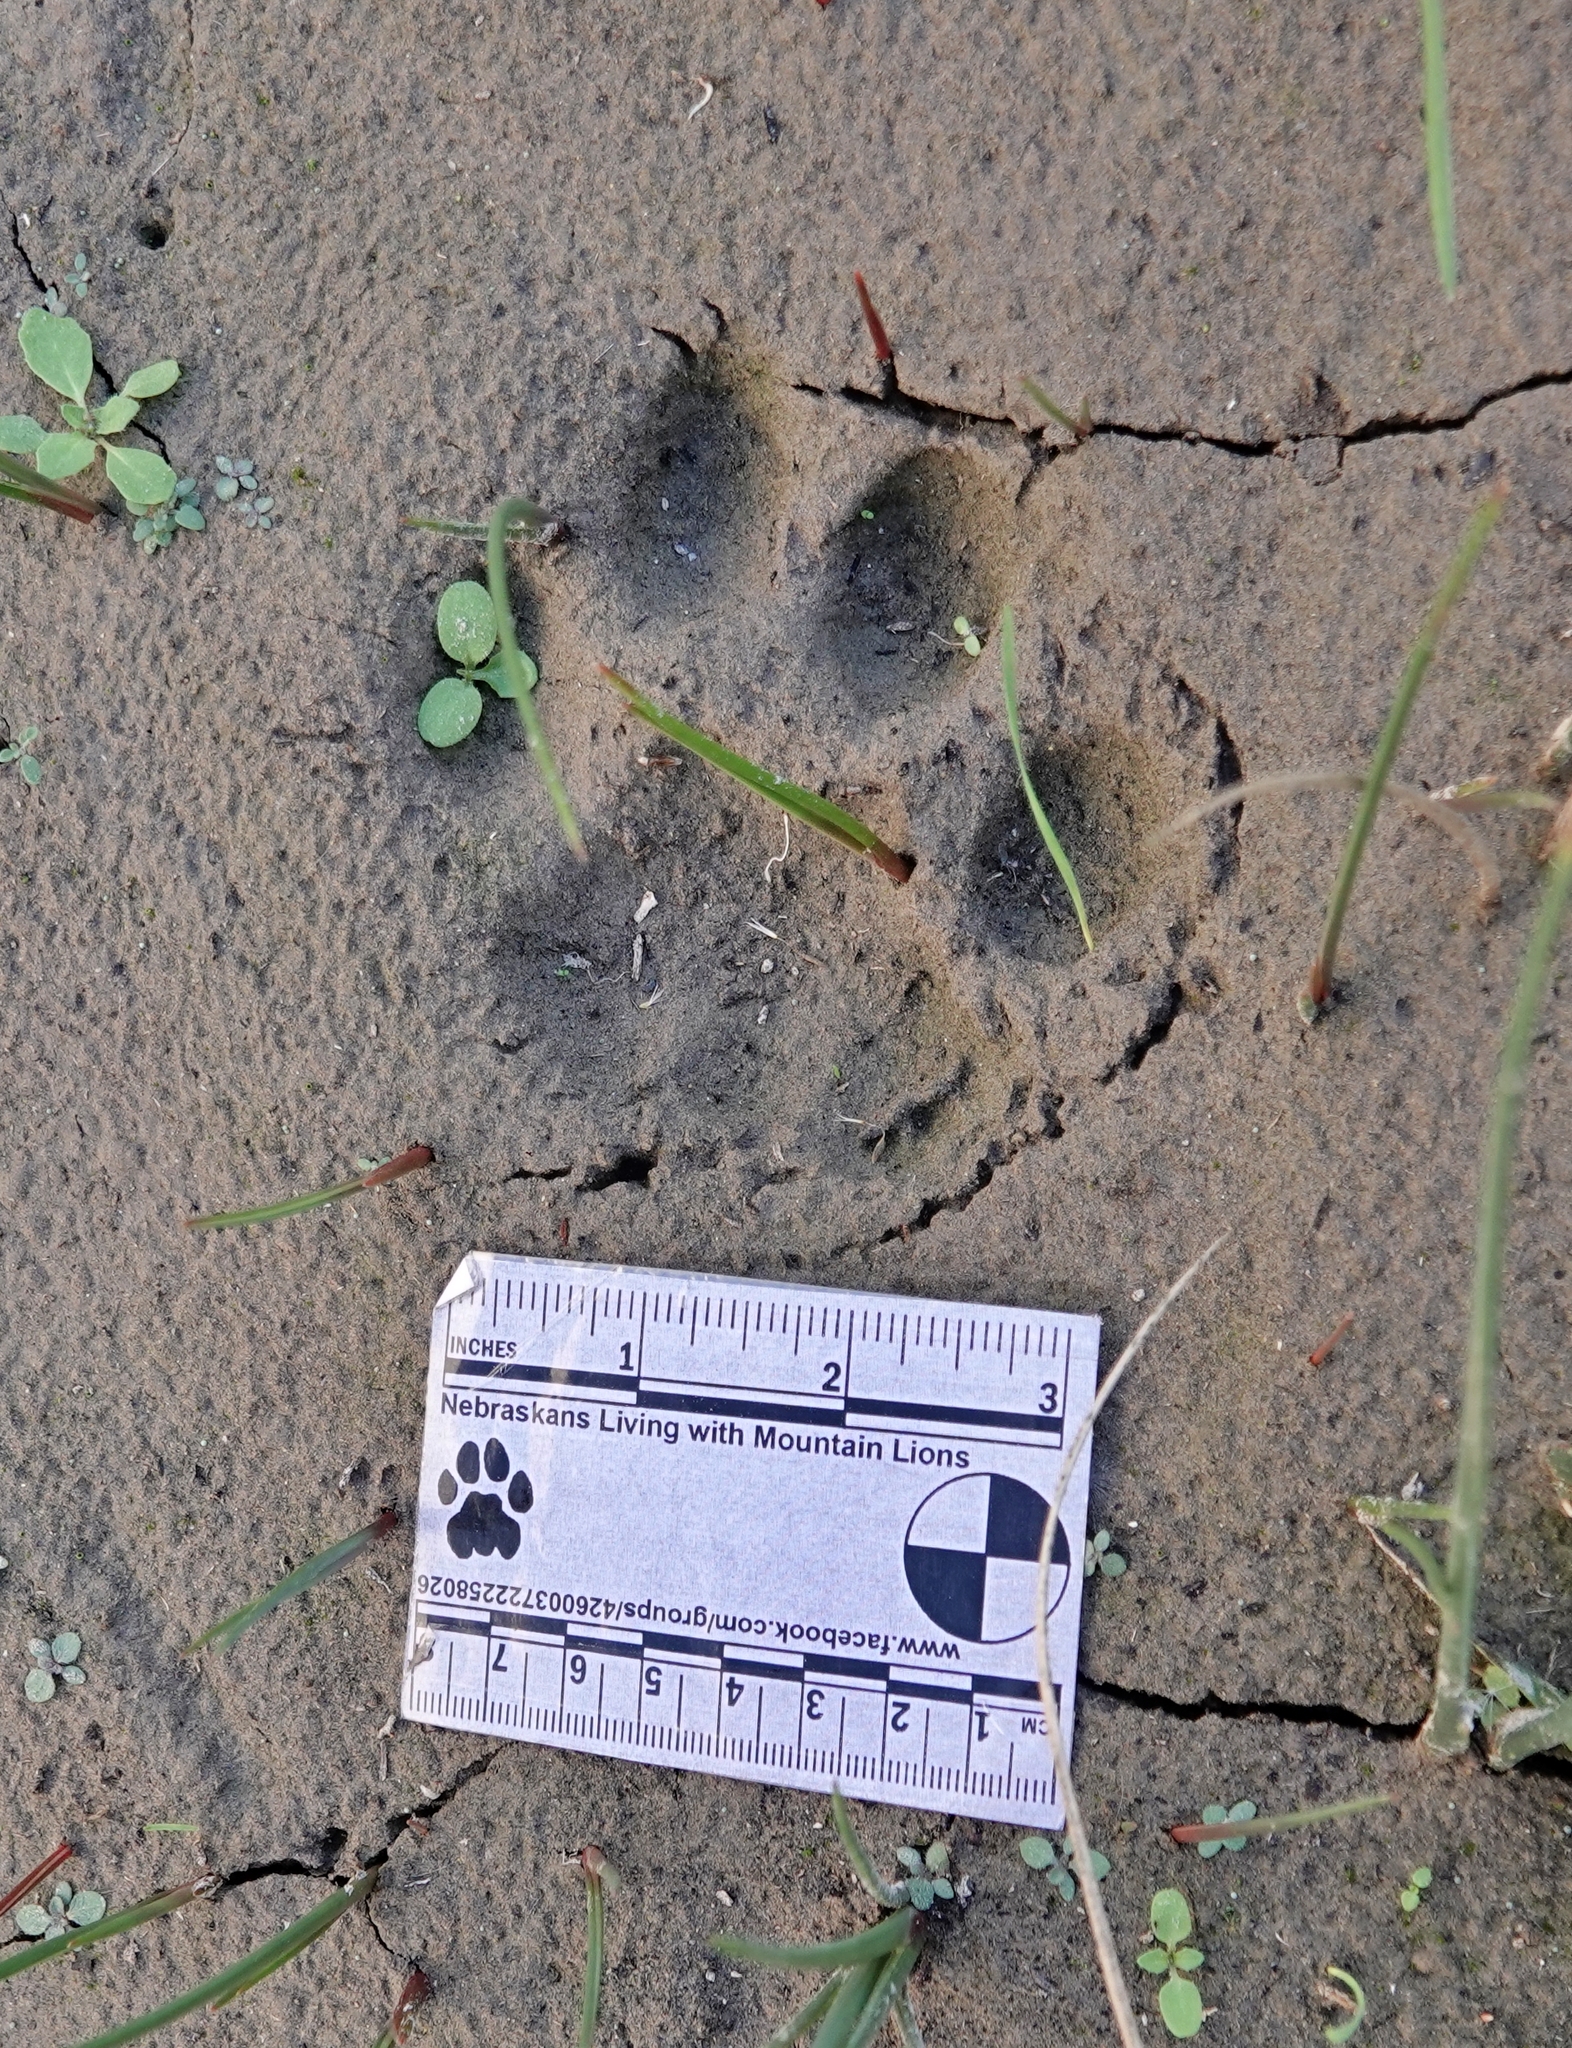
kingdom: Animalia
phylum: Chordata
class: Mammalia
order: Carnivora
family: Felidae
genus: Puma
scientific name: Puma concolor
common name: Puma
